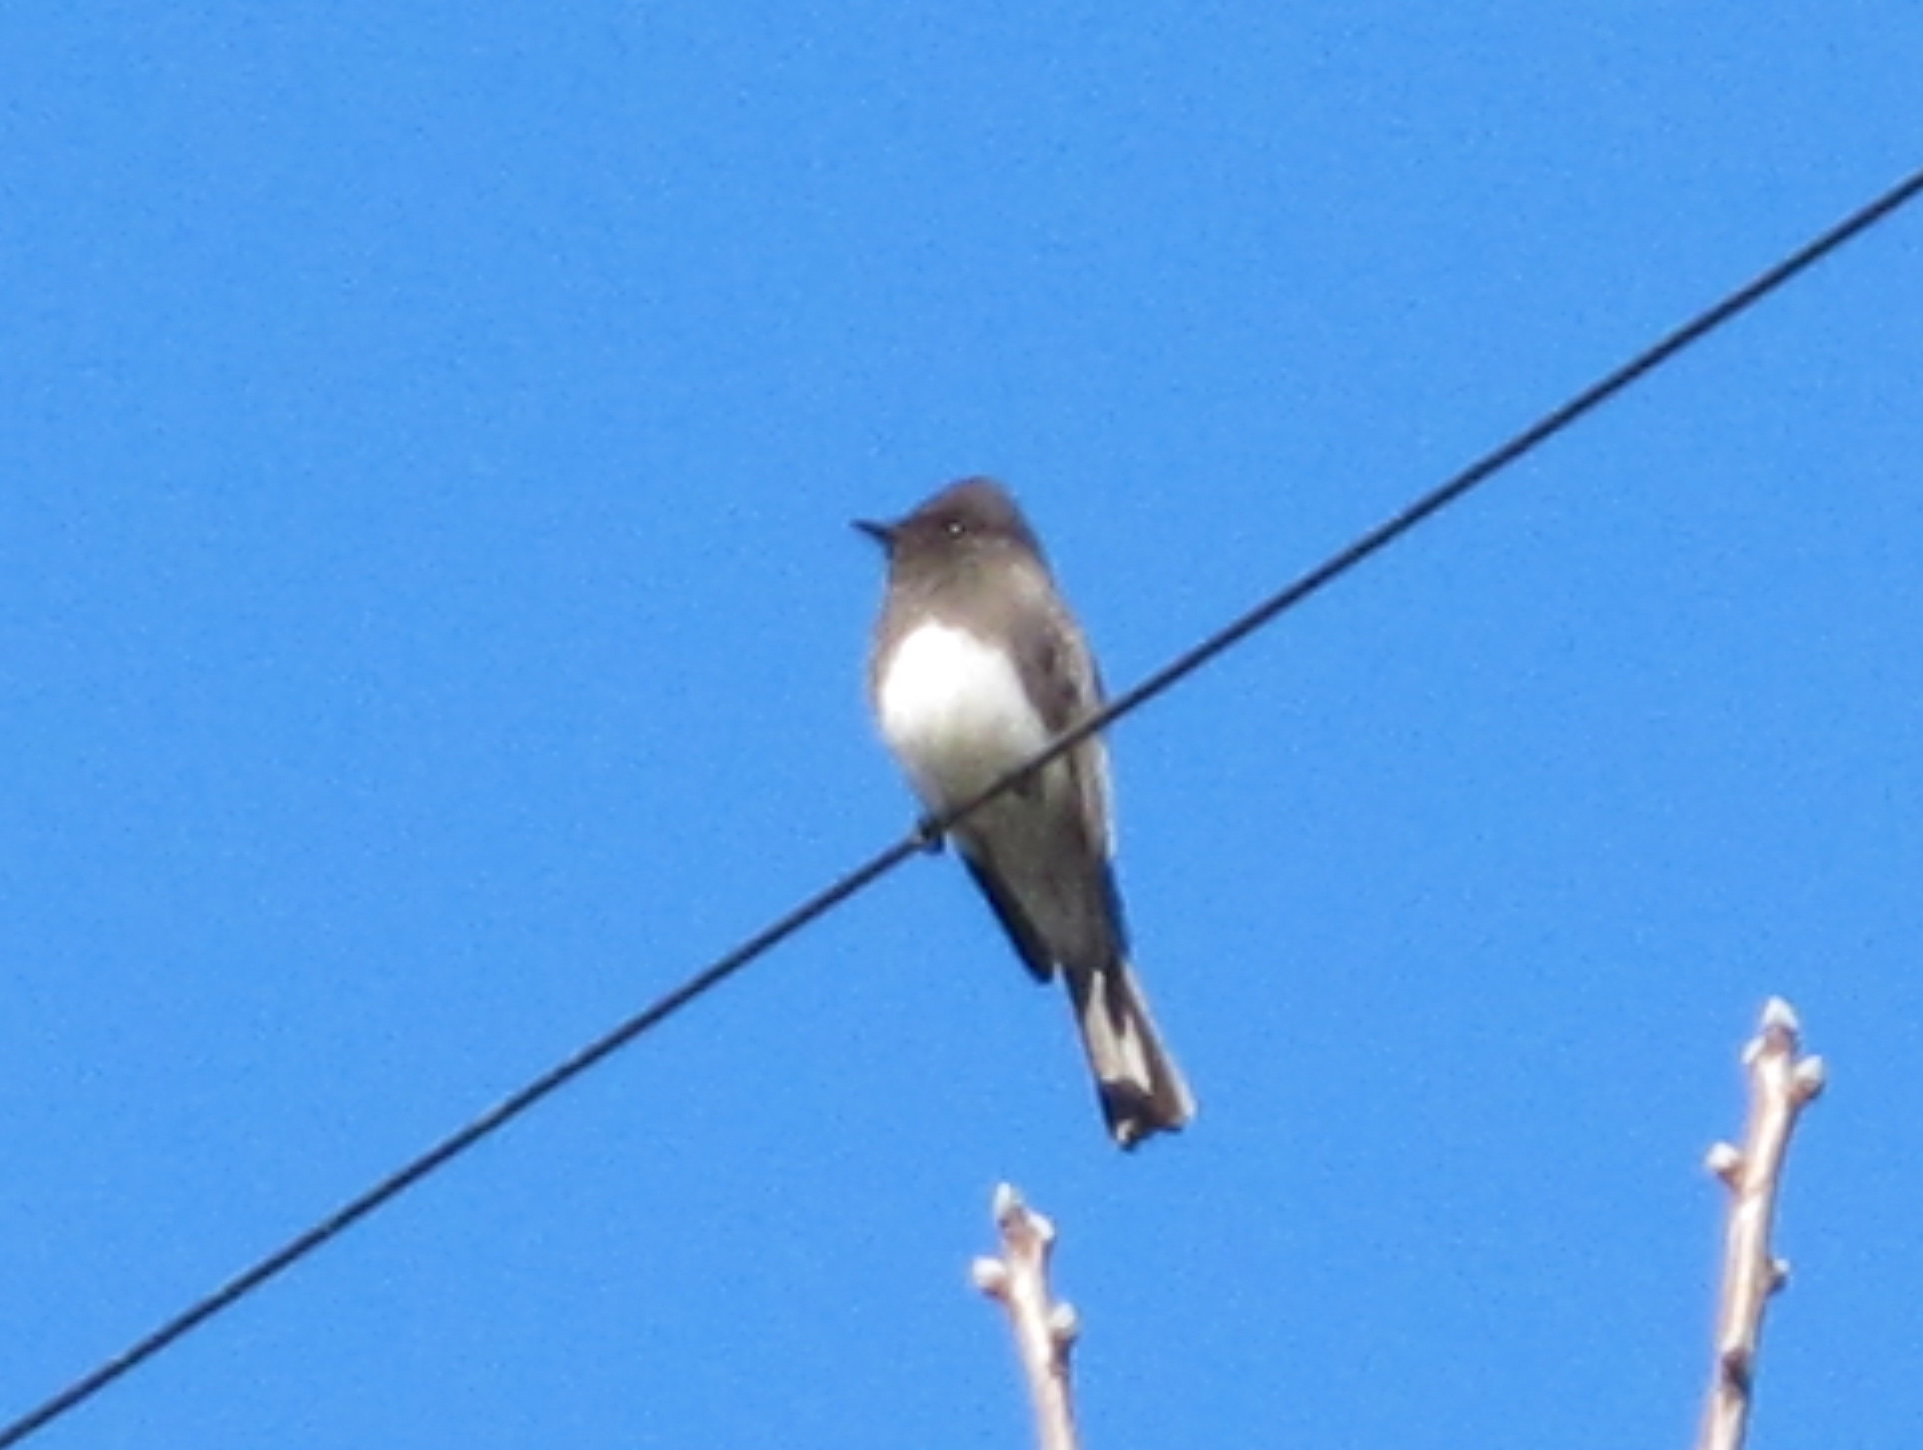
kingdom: Animalia
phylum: Chordata
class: Aves
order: Passeriformes
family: Tyrannidae
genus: Sayornis
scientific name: Sayornis nigricans
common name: Black phoebe
